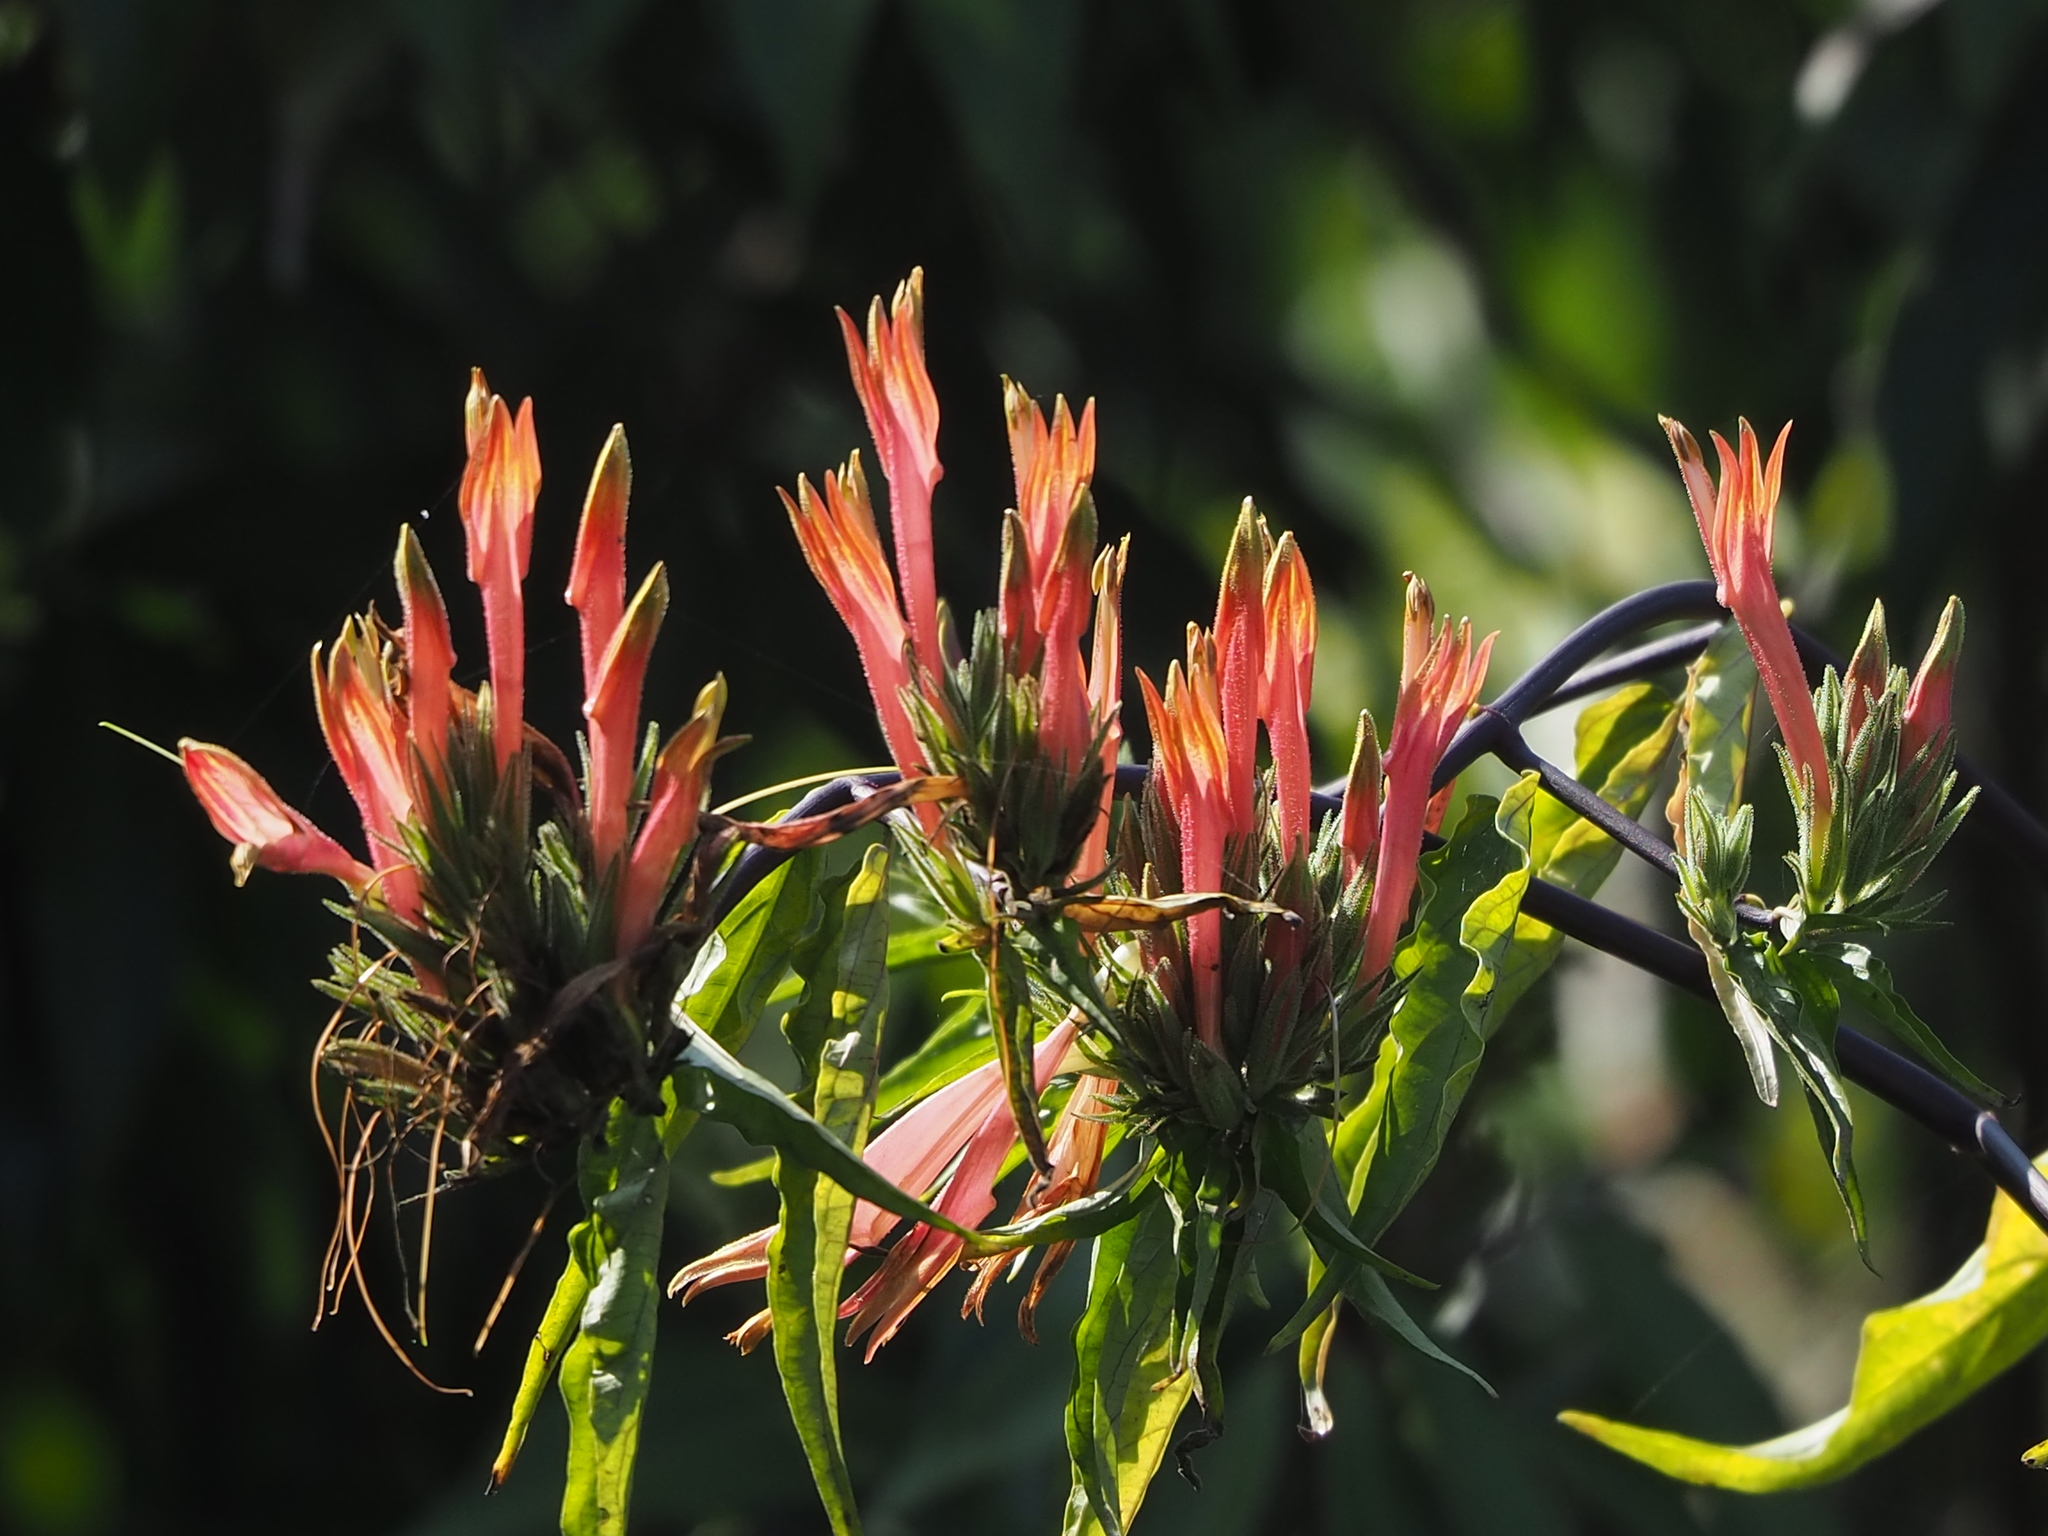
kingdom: Plantae
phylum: Tracheophyta
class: Magnoliopsida
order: Lamiales
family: Acanthaceae
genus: Clinacanthus
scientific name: Clinacanthus nutans
